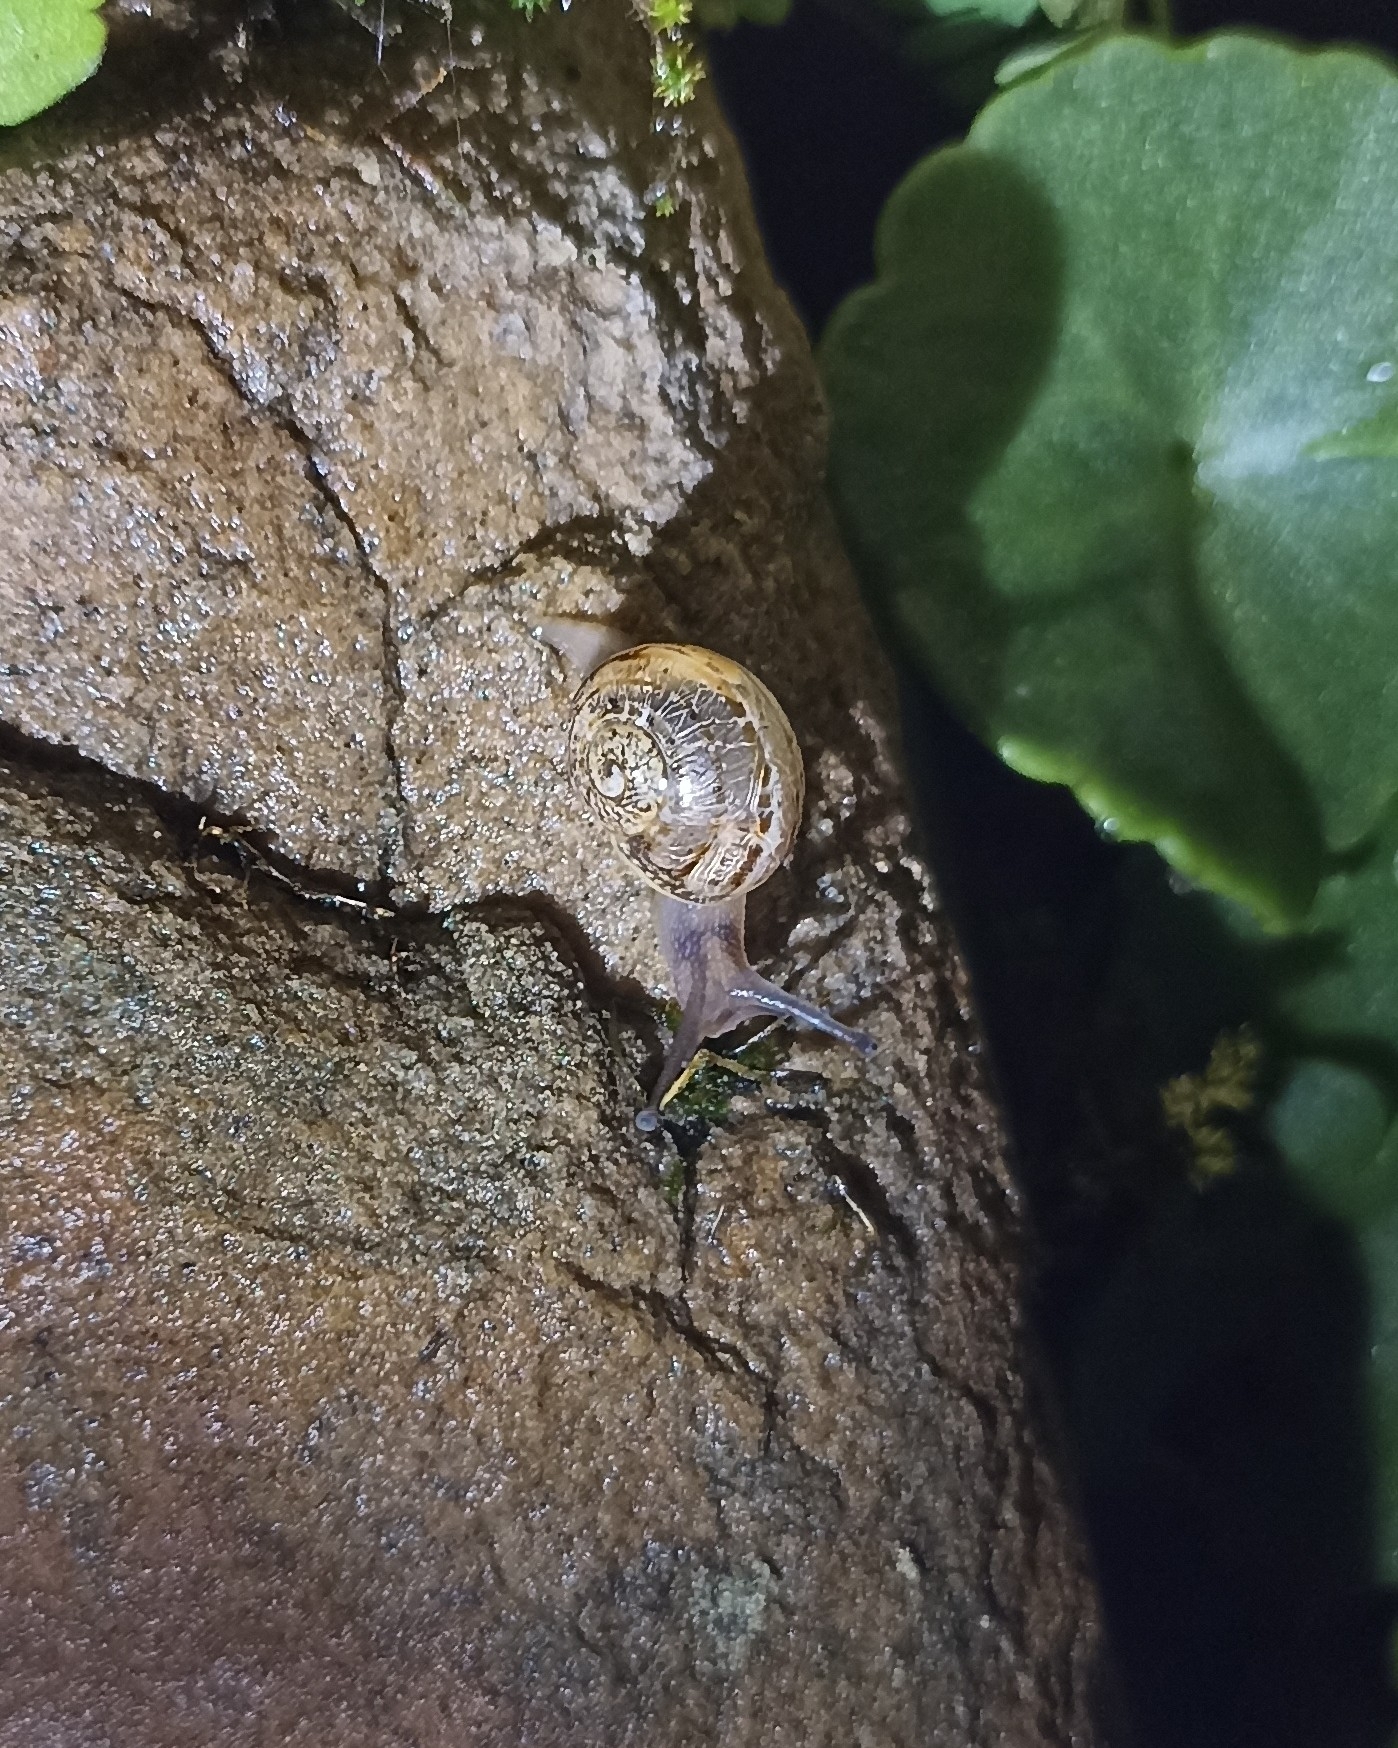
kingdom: Animalia
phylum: Mollusca
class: Gastropoda
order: Stylommatophora
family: Helicidae
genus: Cornu
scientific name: Cornu aspersum
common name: Brown garden snail
